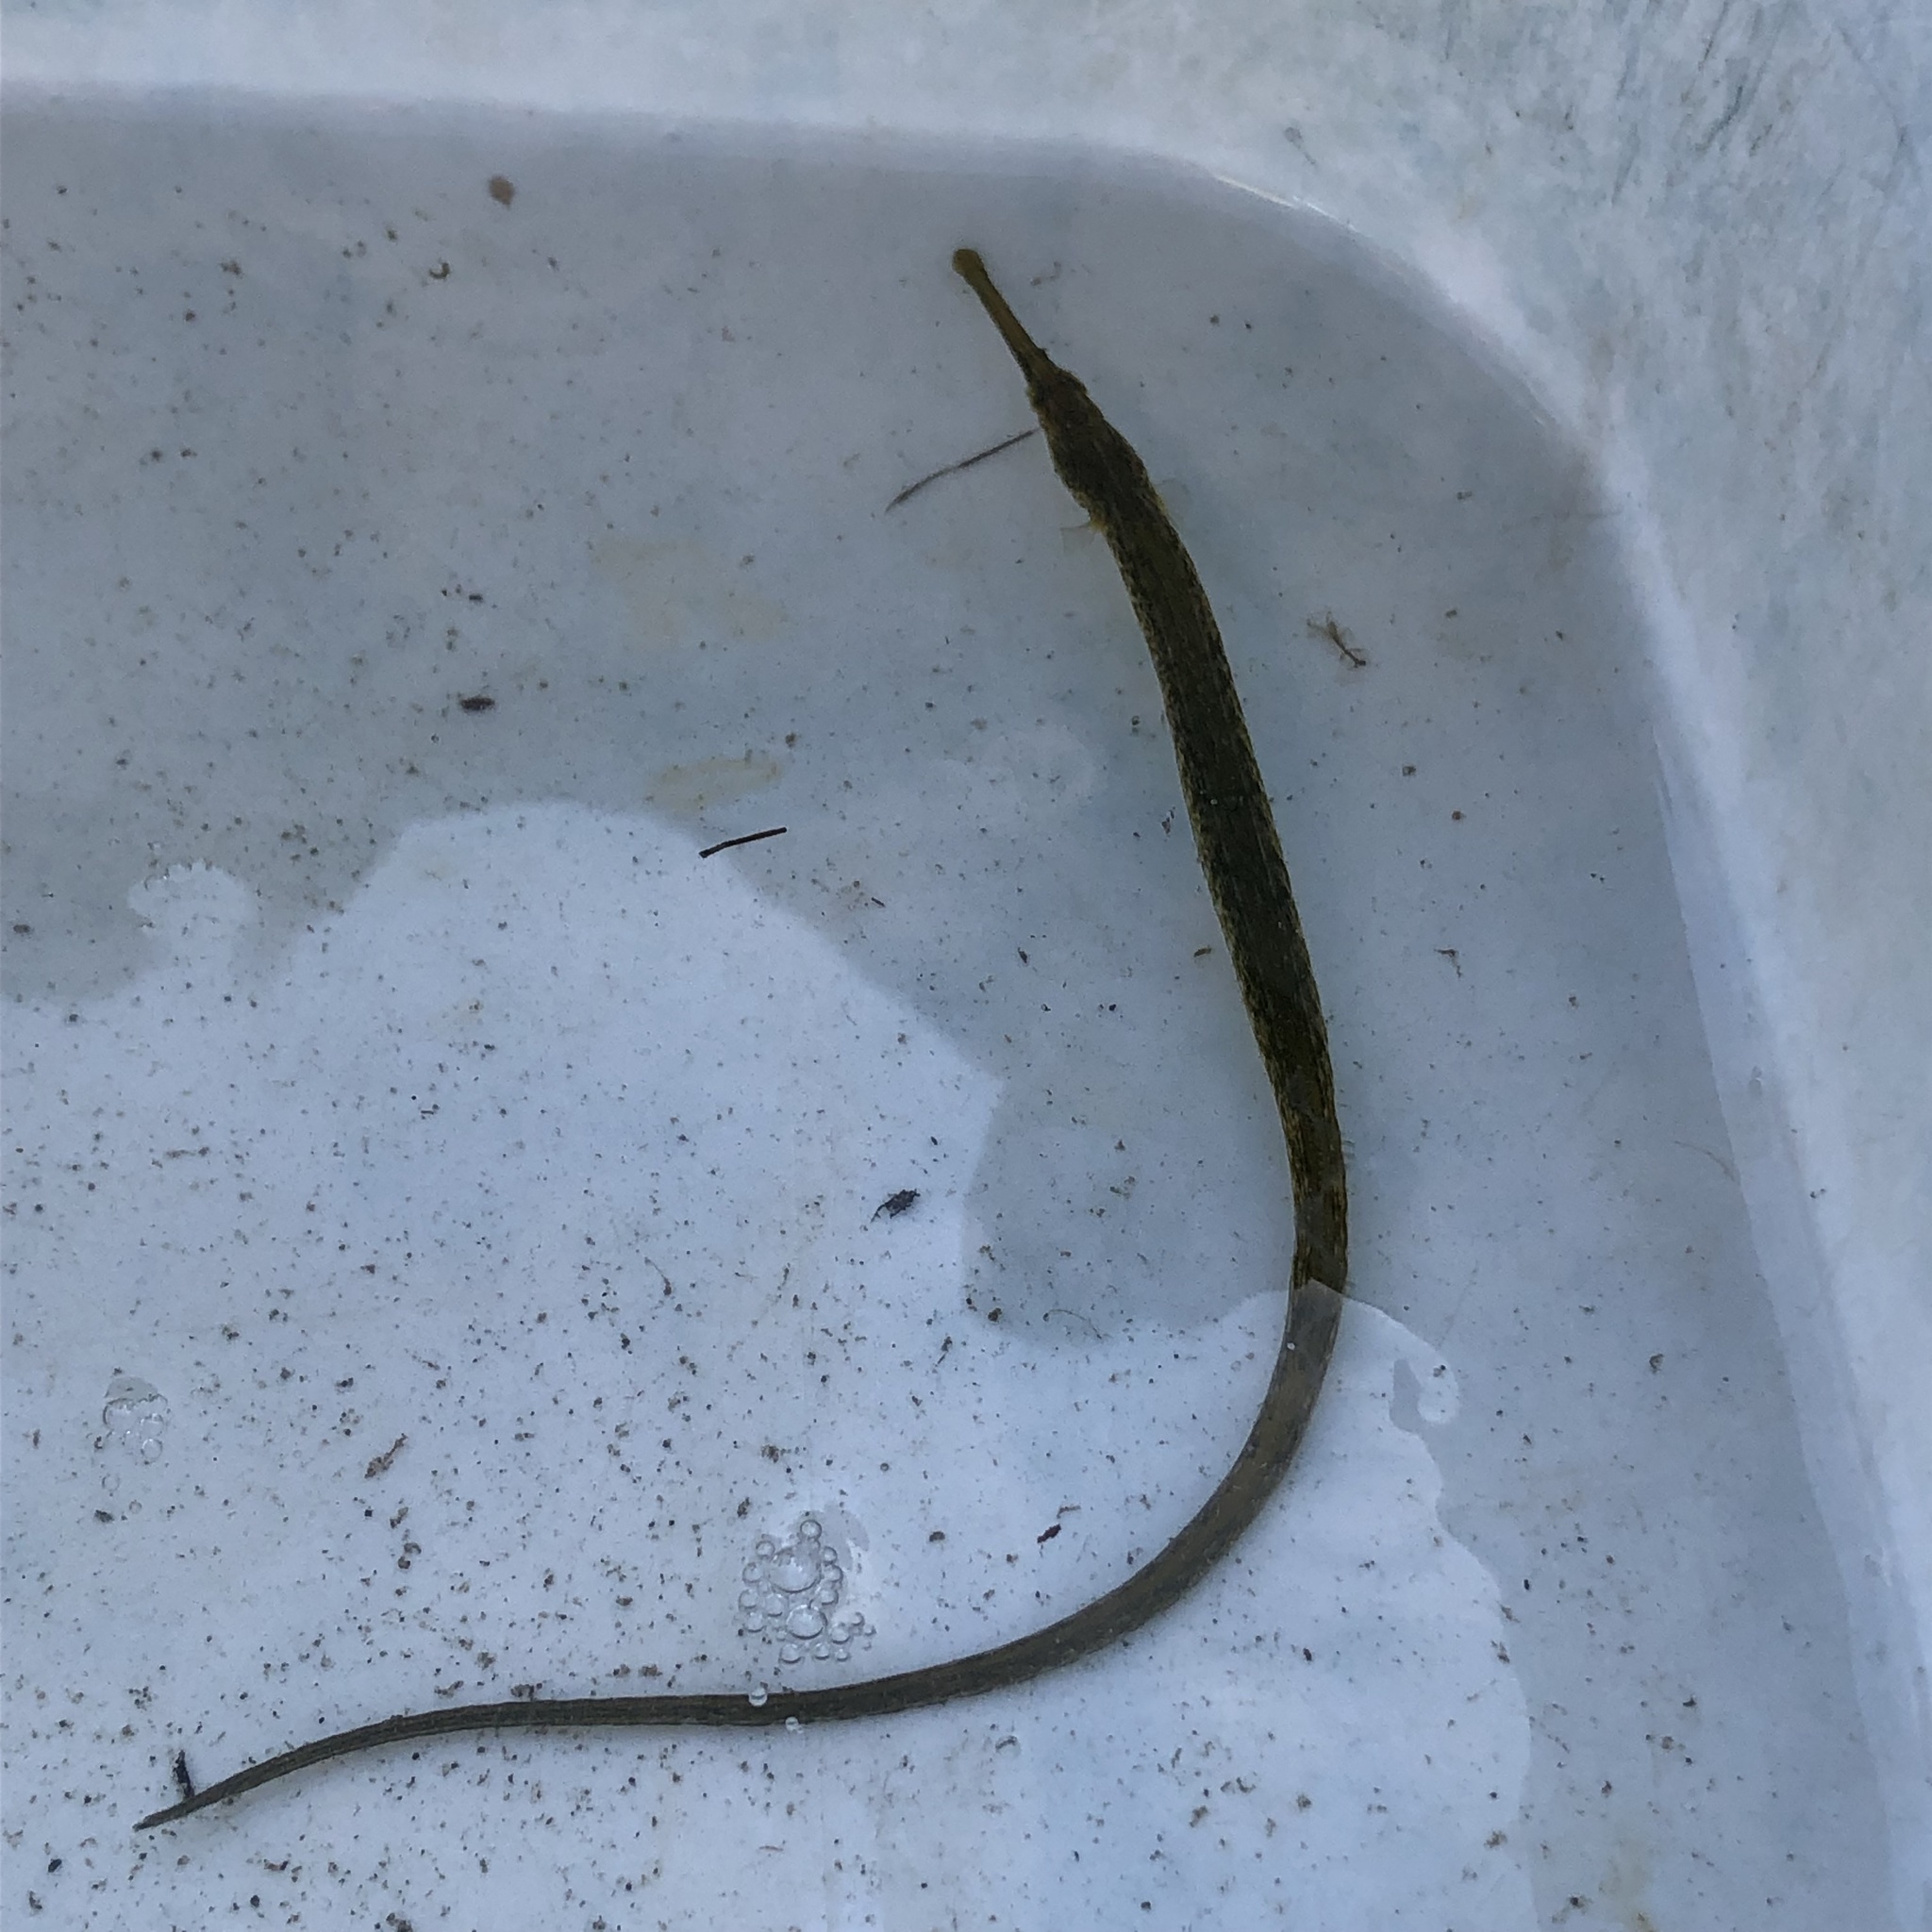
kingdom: Animalia
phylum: Chordata
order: Syngnathiformes
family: Syngnathidae
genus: Syngnathus
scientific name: Syngnathus californiensis
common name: Great pipefish
